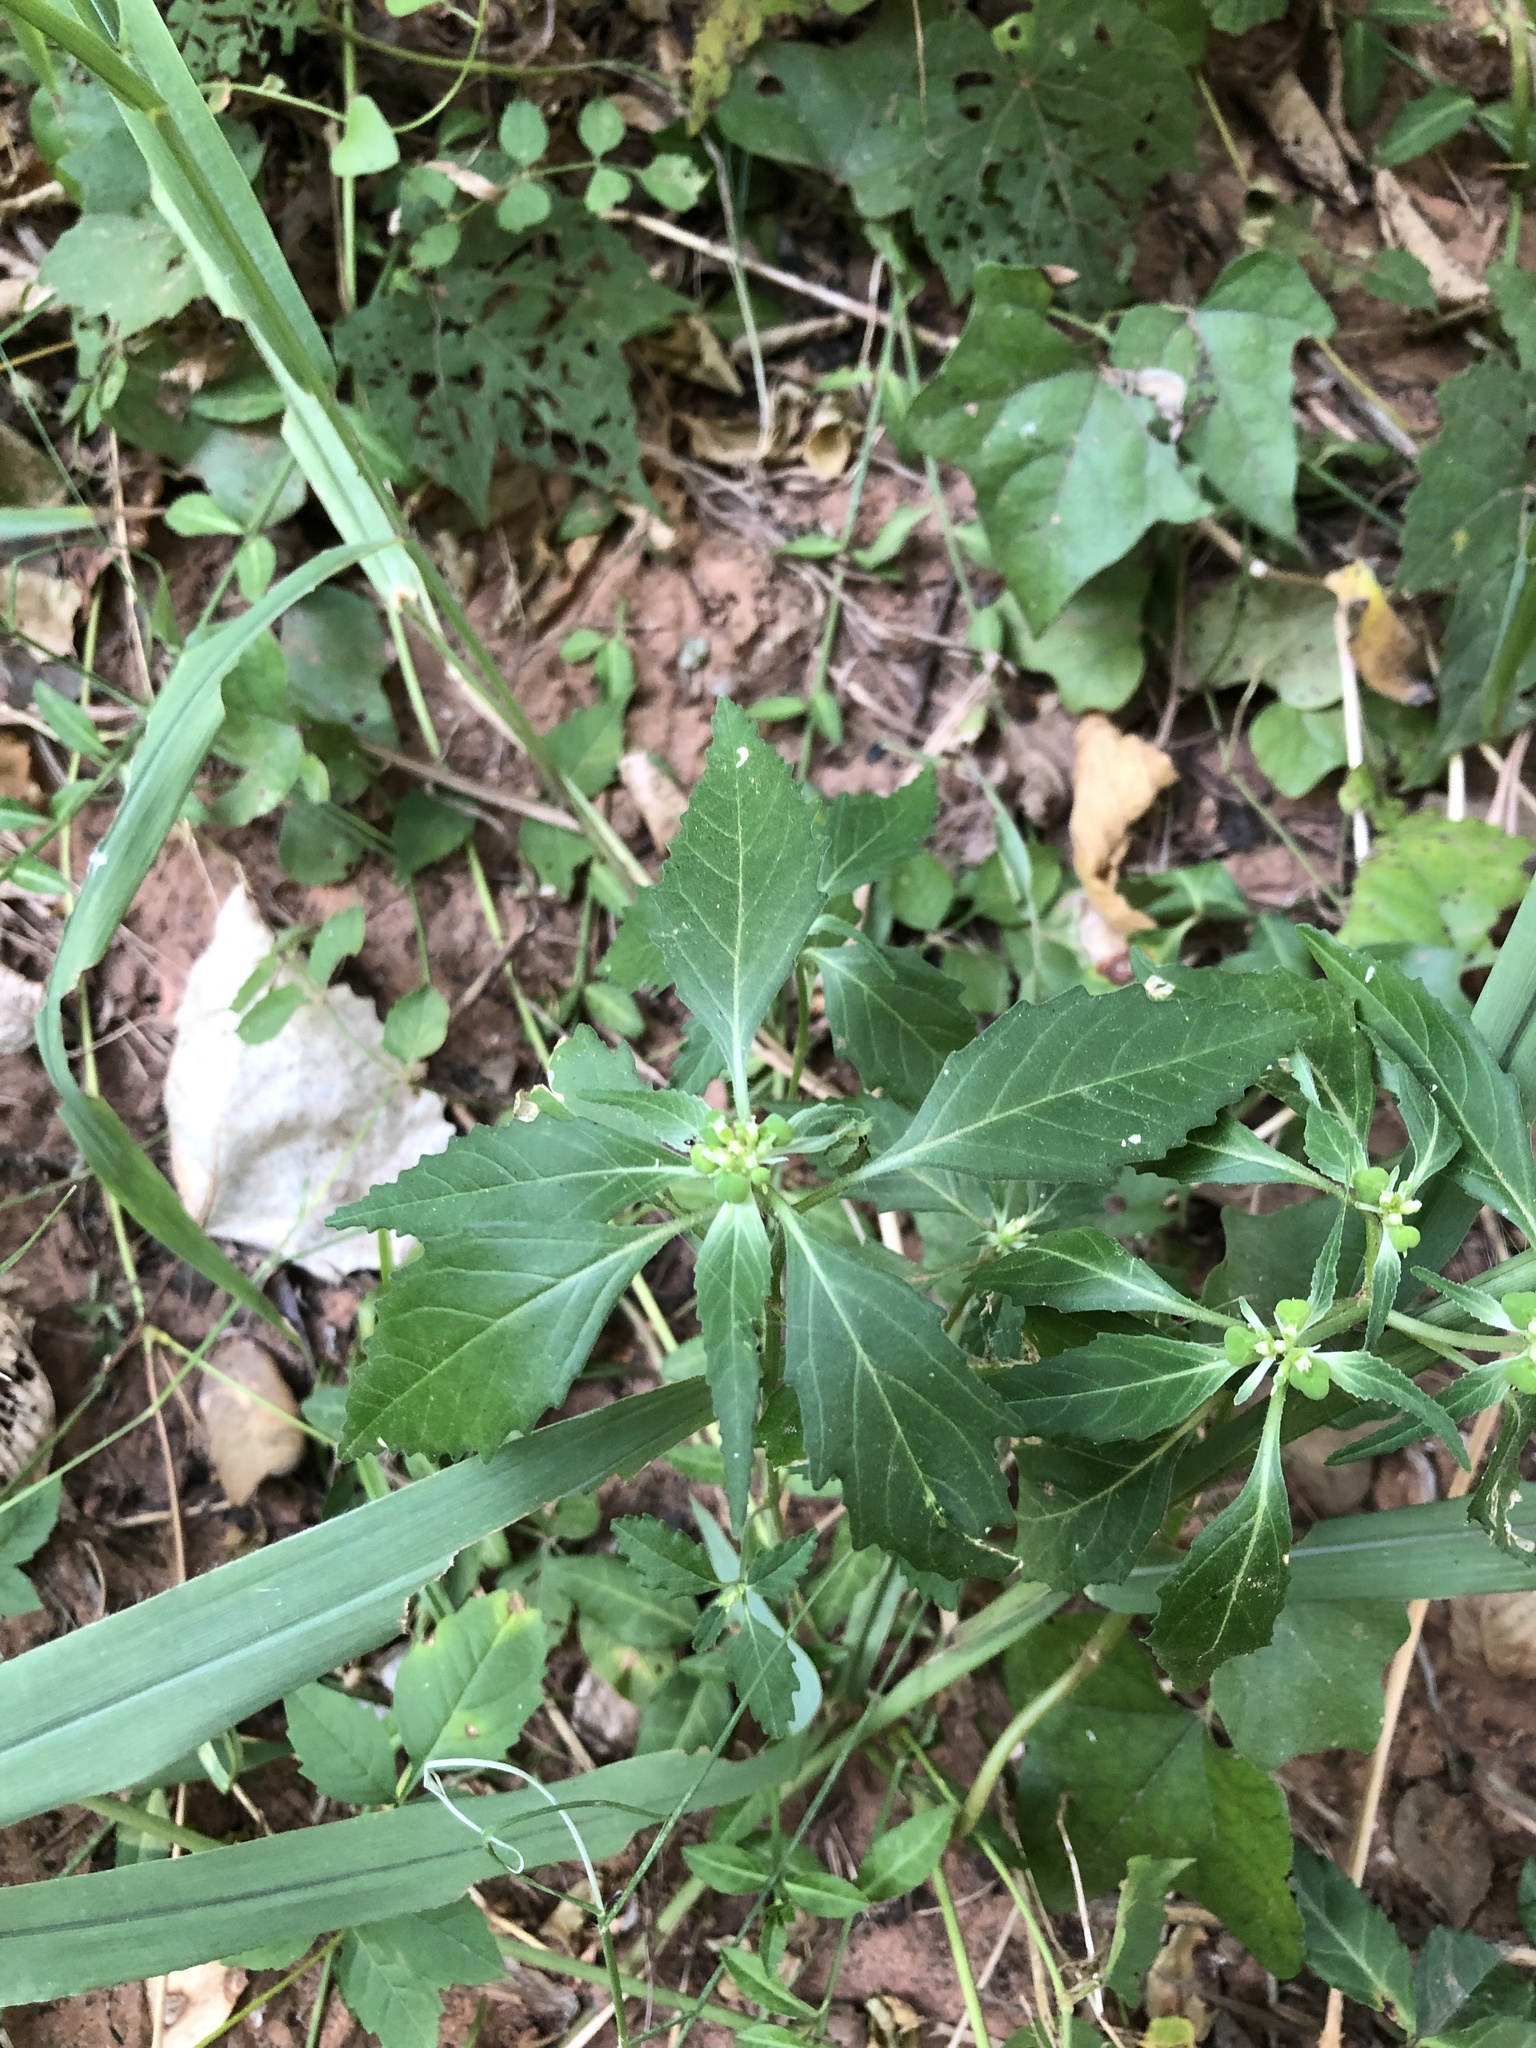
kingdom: Plantae
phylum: Tracheophyta
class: Magnoliopsida
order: Malpighiales
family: Euphorbiaceae
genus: Euphorbia
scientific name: Euphorbia dentata
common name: Dentate spurge
